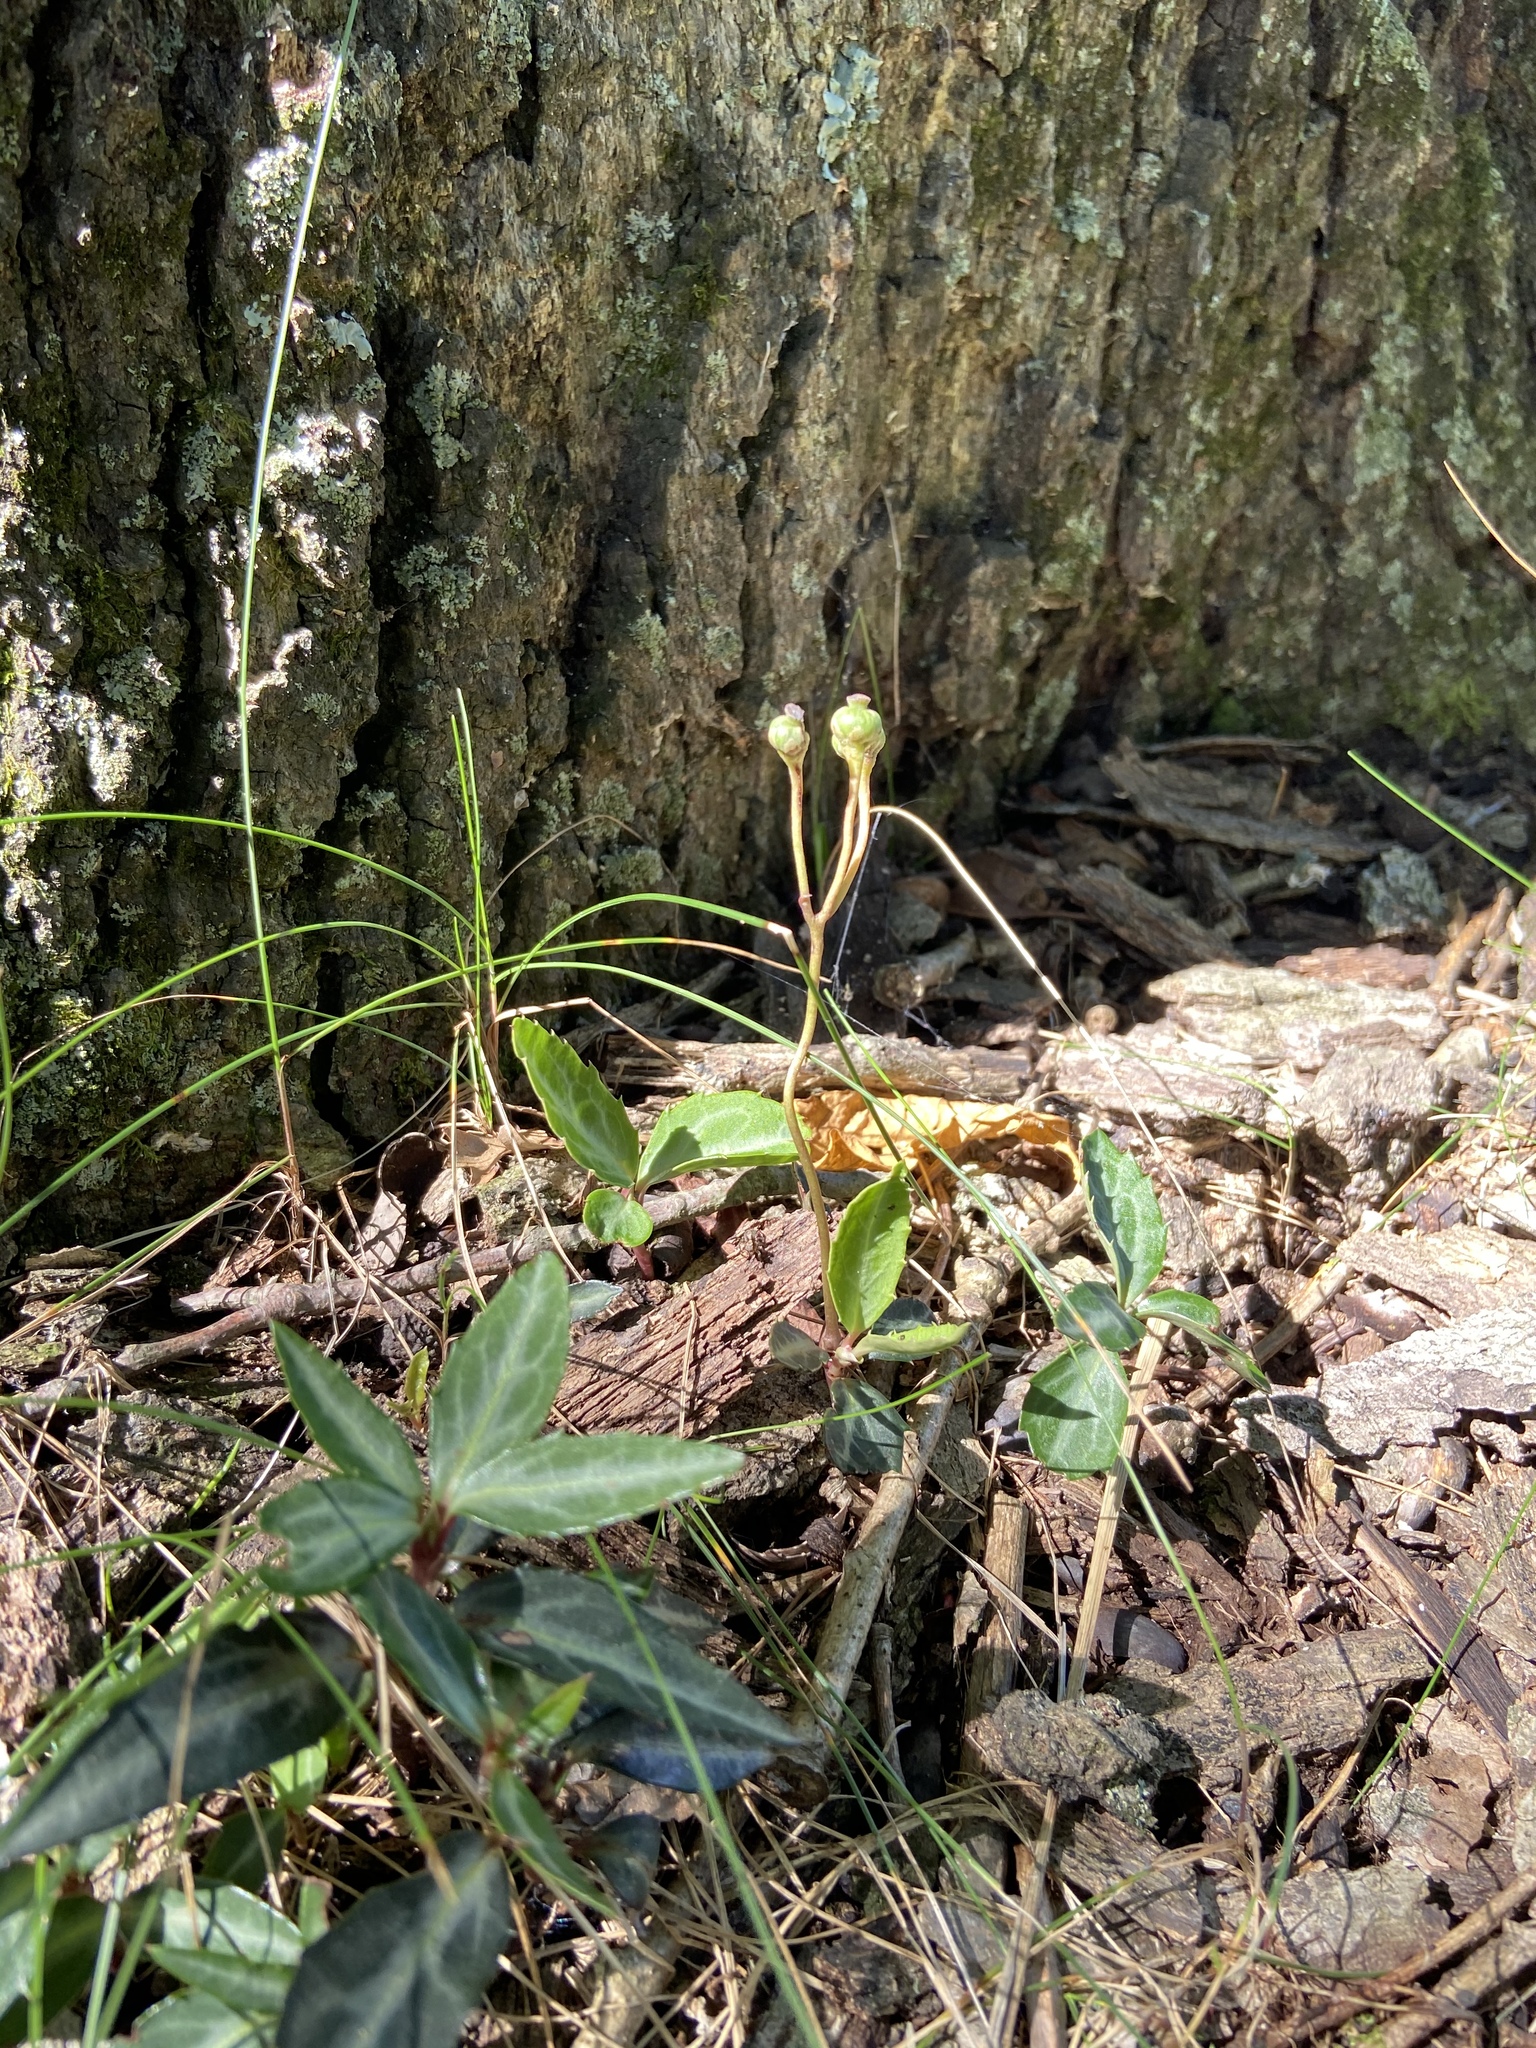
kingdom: Plantae
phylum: Tracheophyta
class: Magnoliopsida
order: Ericales
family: Ericaceae
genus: Chimaphila
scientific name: Chimaphila maculata
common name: Spotted pipsissewa
